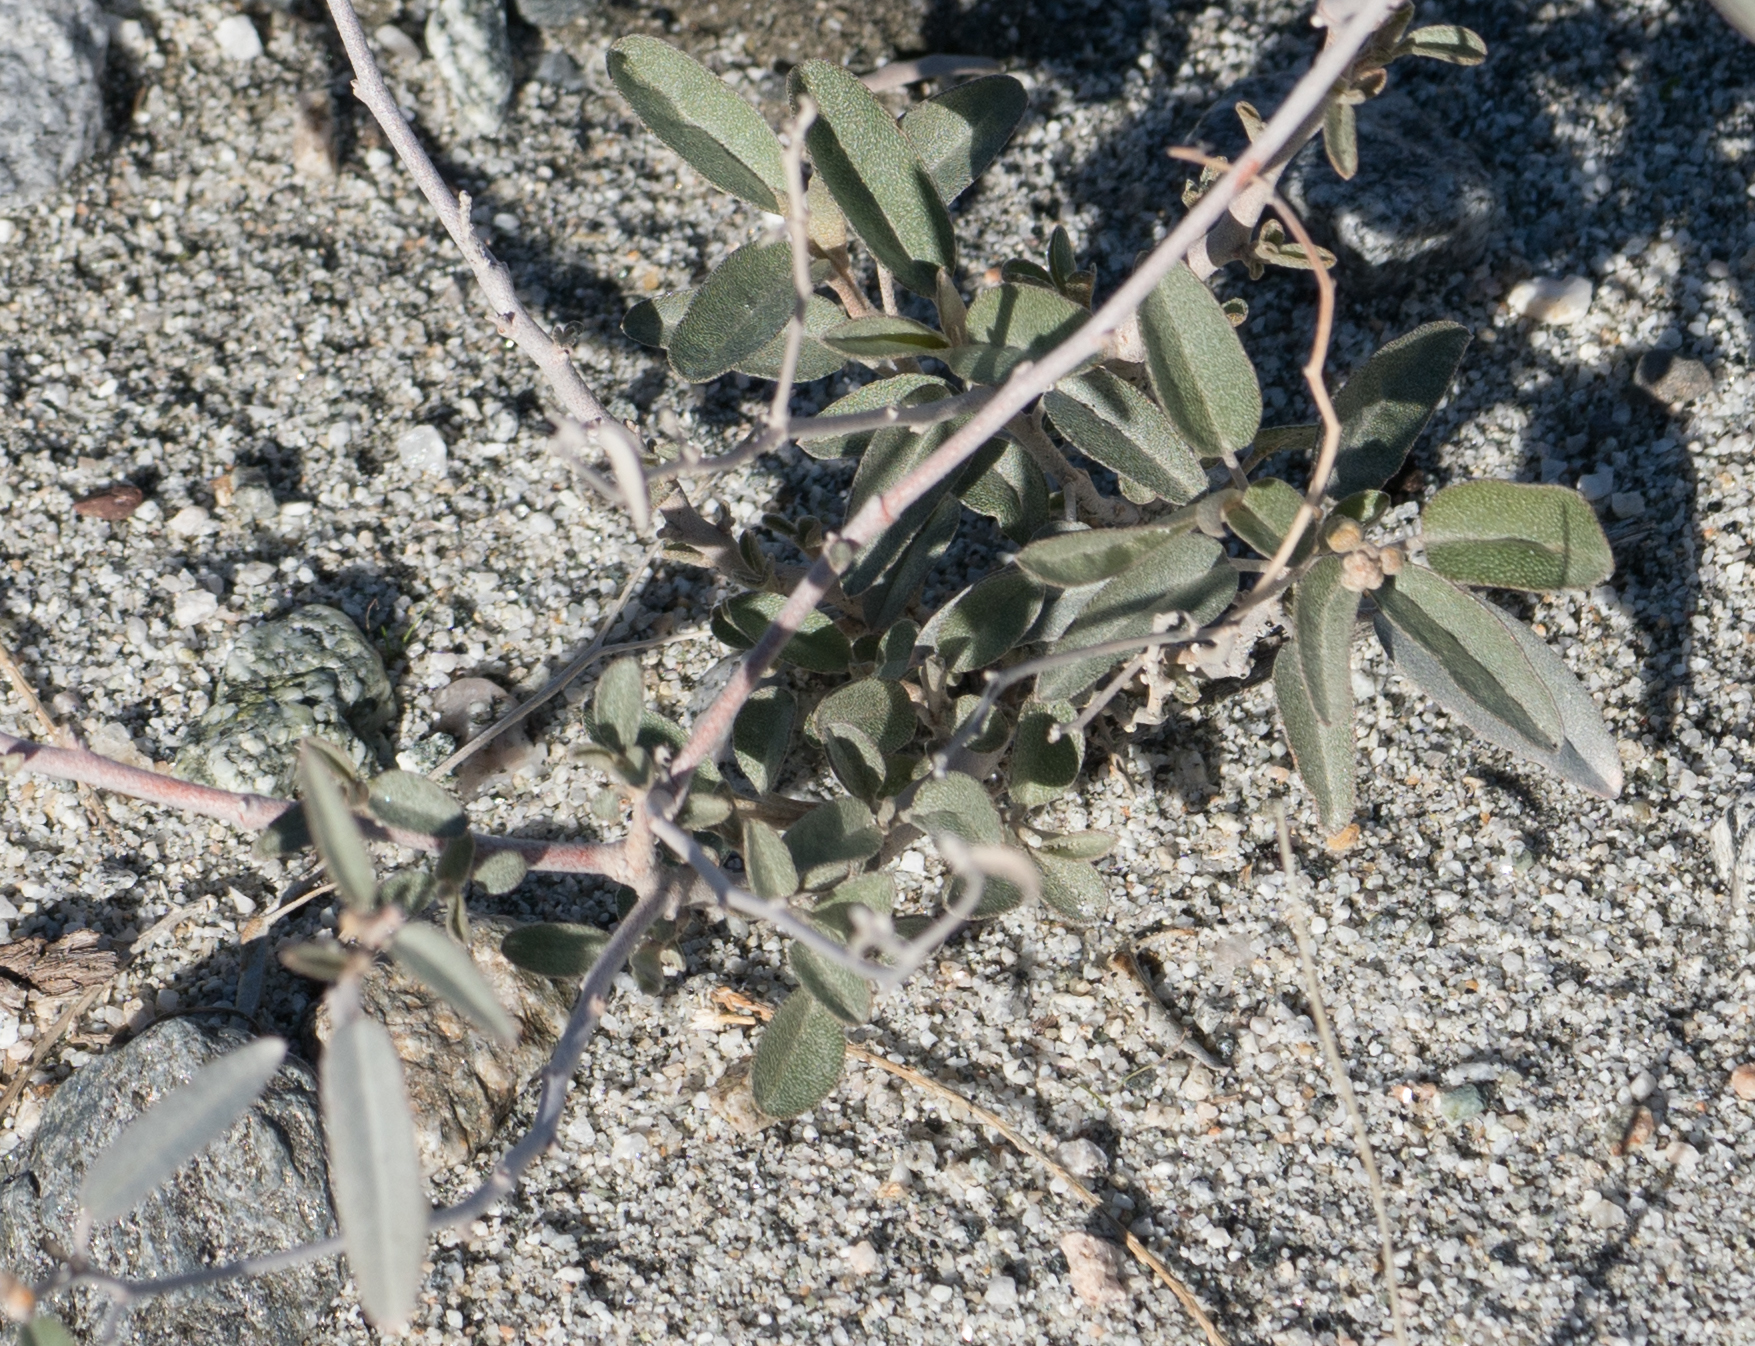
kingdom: Plantae
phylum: Tracheophyta
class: Magnoliopsida
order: Malpighiales
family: Euphorbiaceae
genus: Croton
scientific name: Croton californicus
